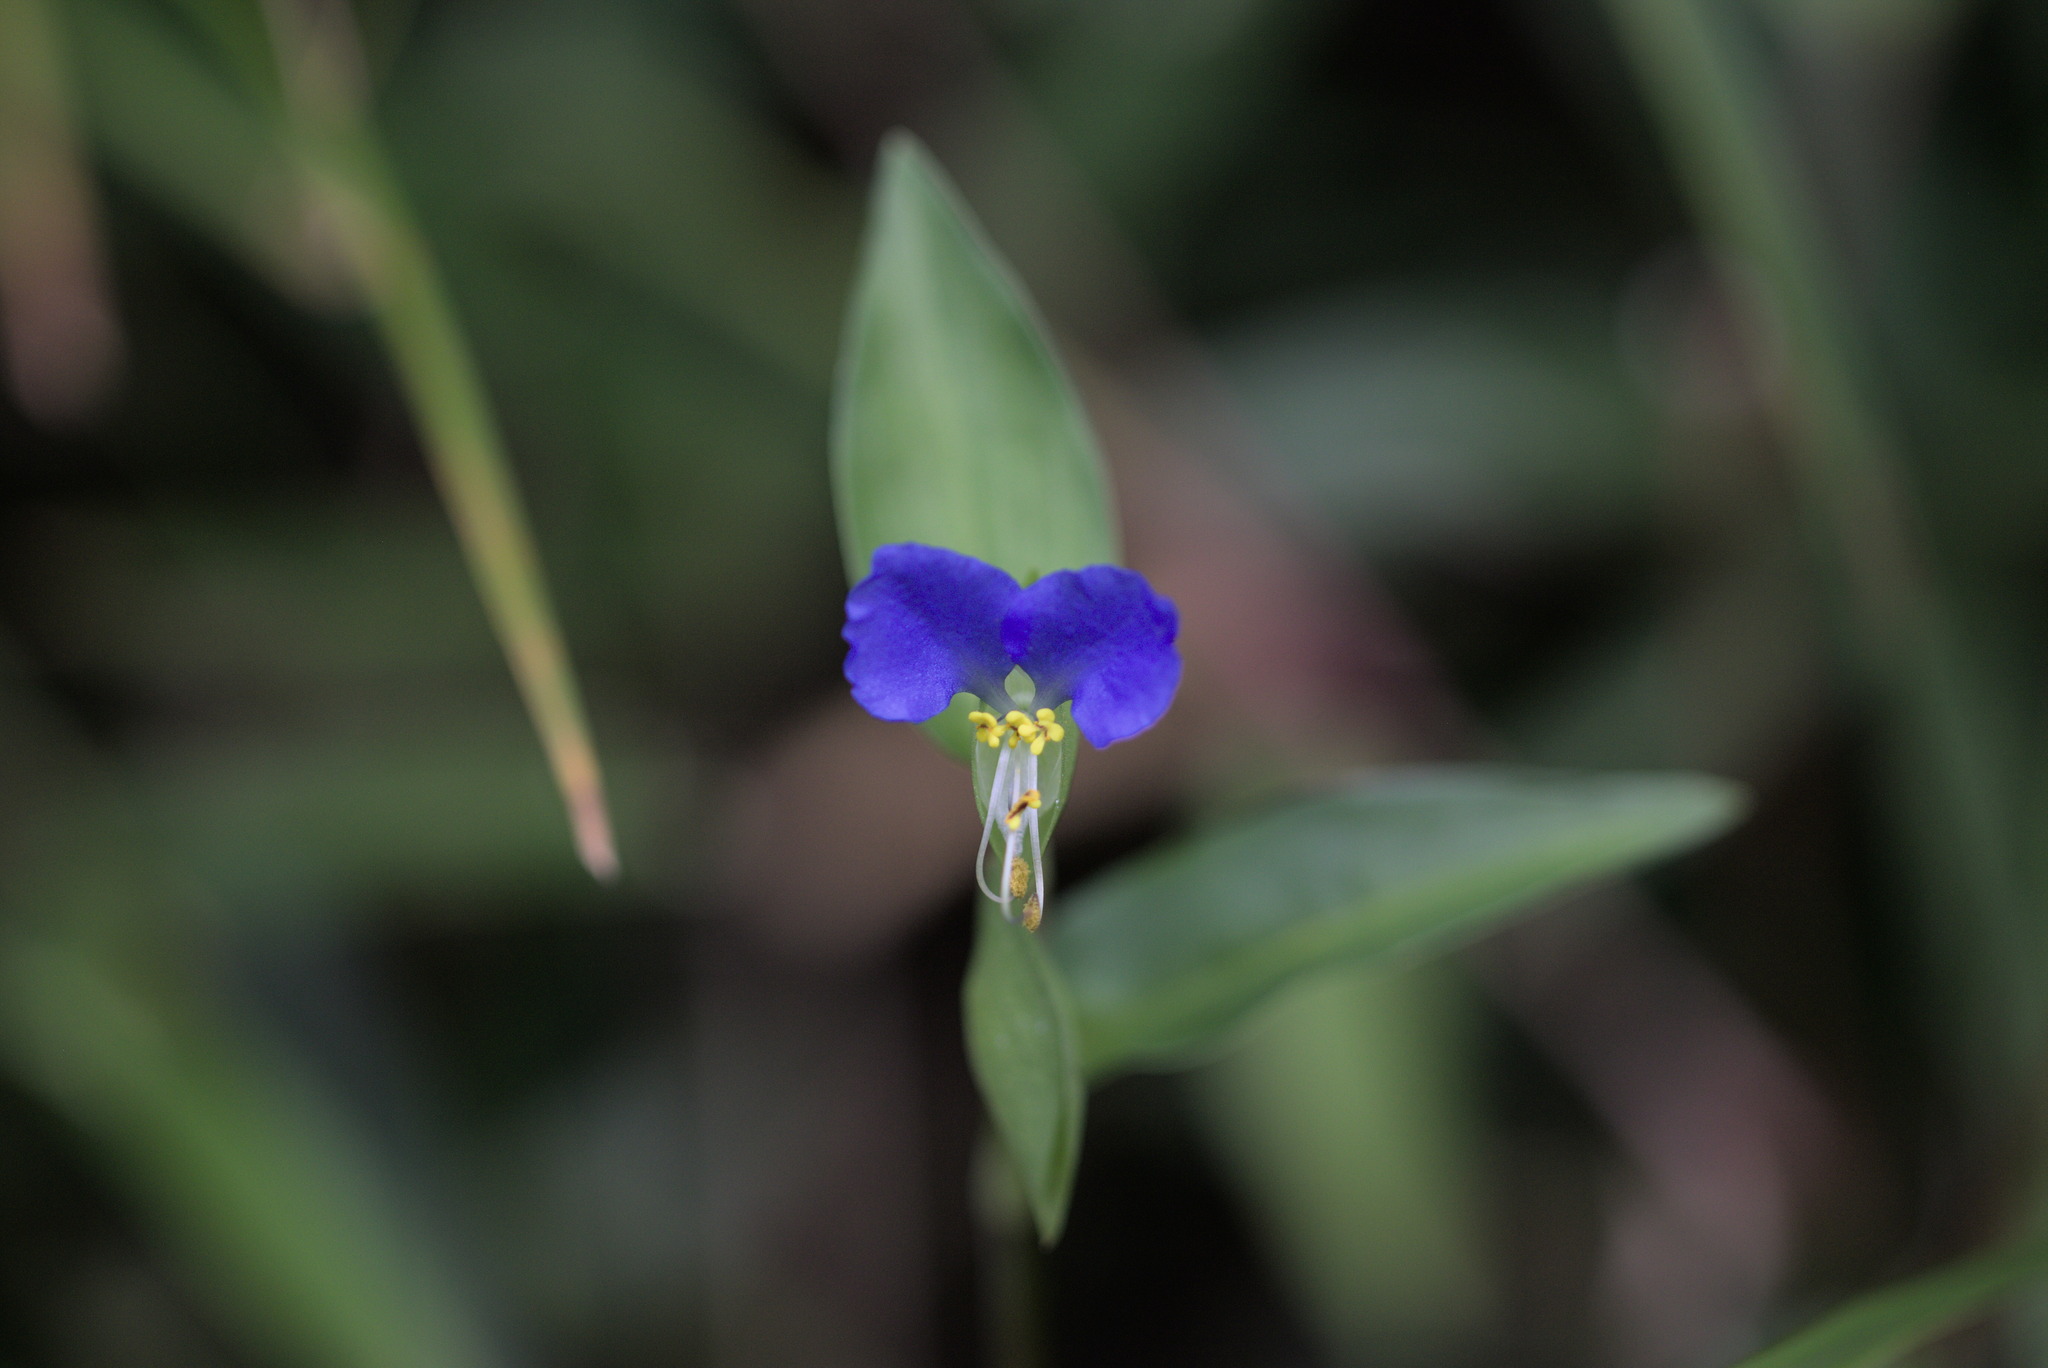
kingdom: Plantae
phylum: Tracheophyta
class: Liliopsida
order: Commelinales
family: Commelinaceae
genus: Commelina
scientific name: Commelina communis
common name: Asiatic dayflower
